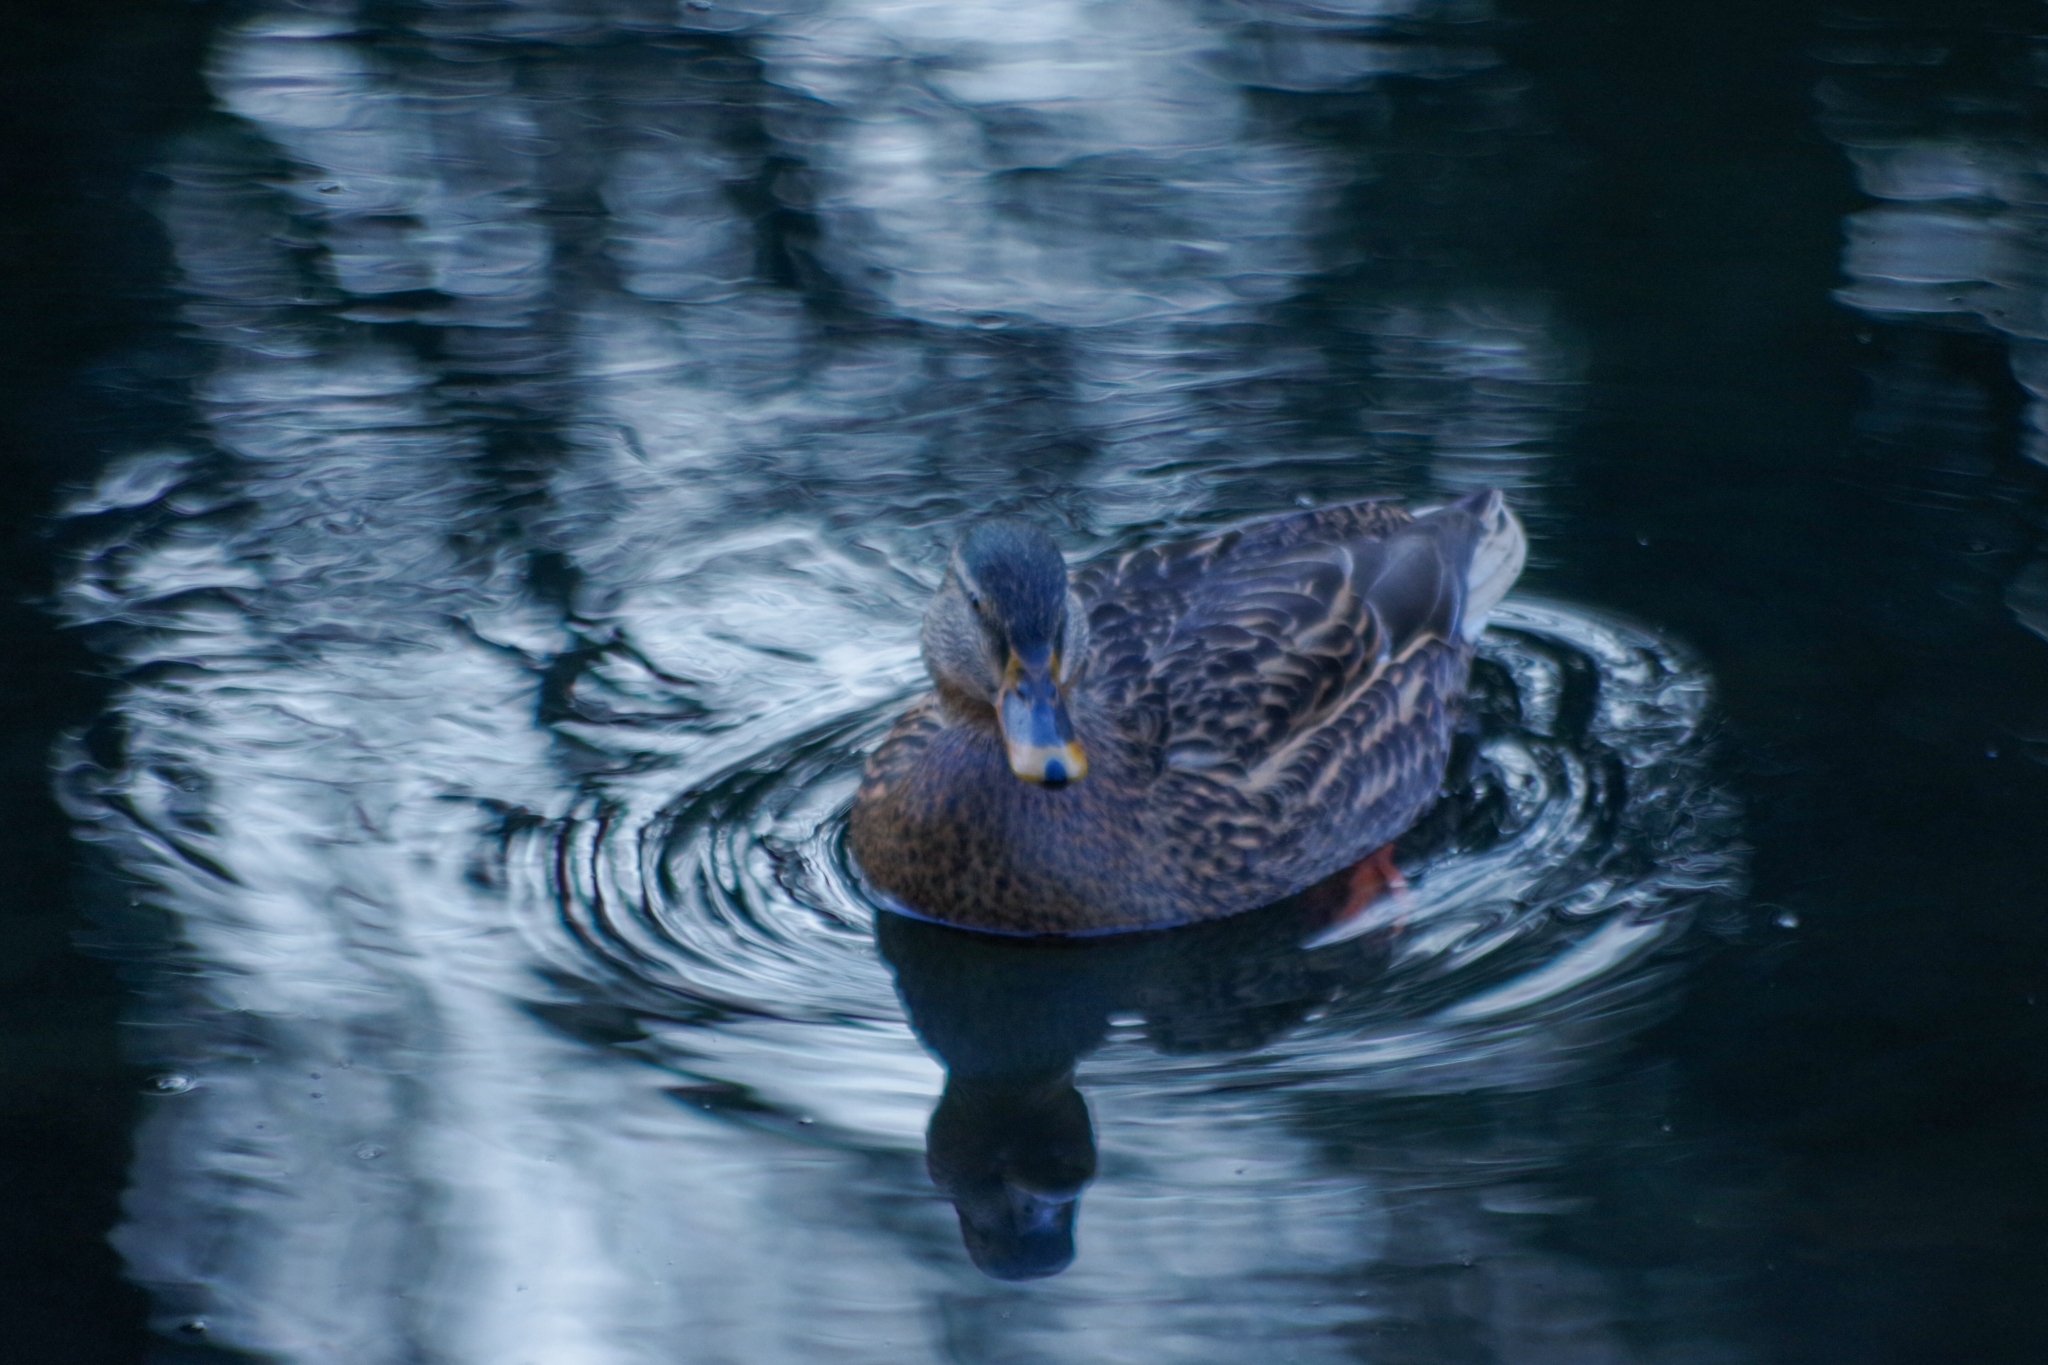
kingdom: Animalia
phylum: Chordata
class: Aves
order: Anseriformes
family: Anatidae
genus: Anas
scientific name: Anas platyrhynchos
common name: Mallard
